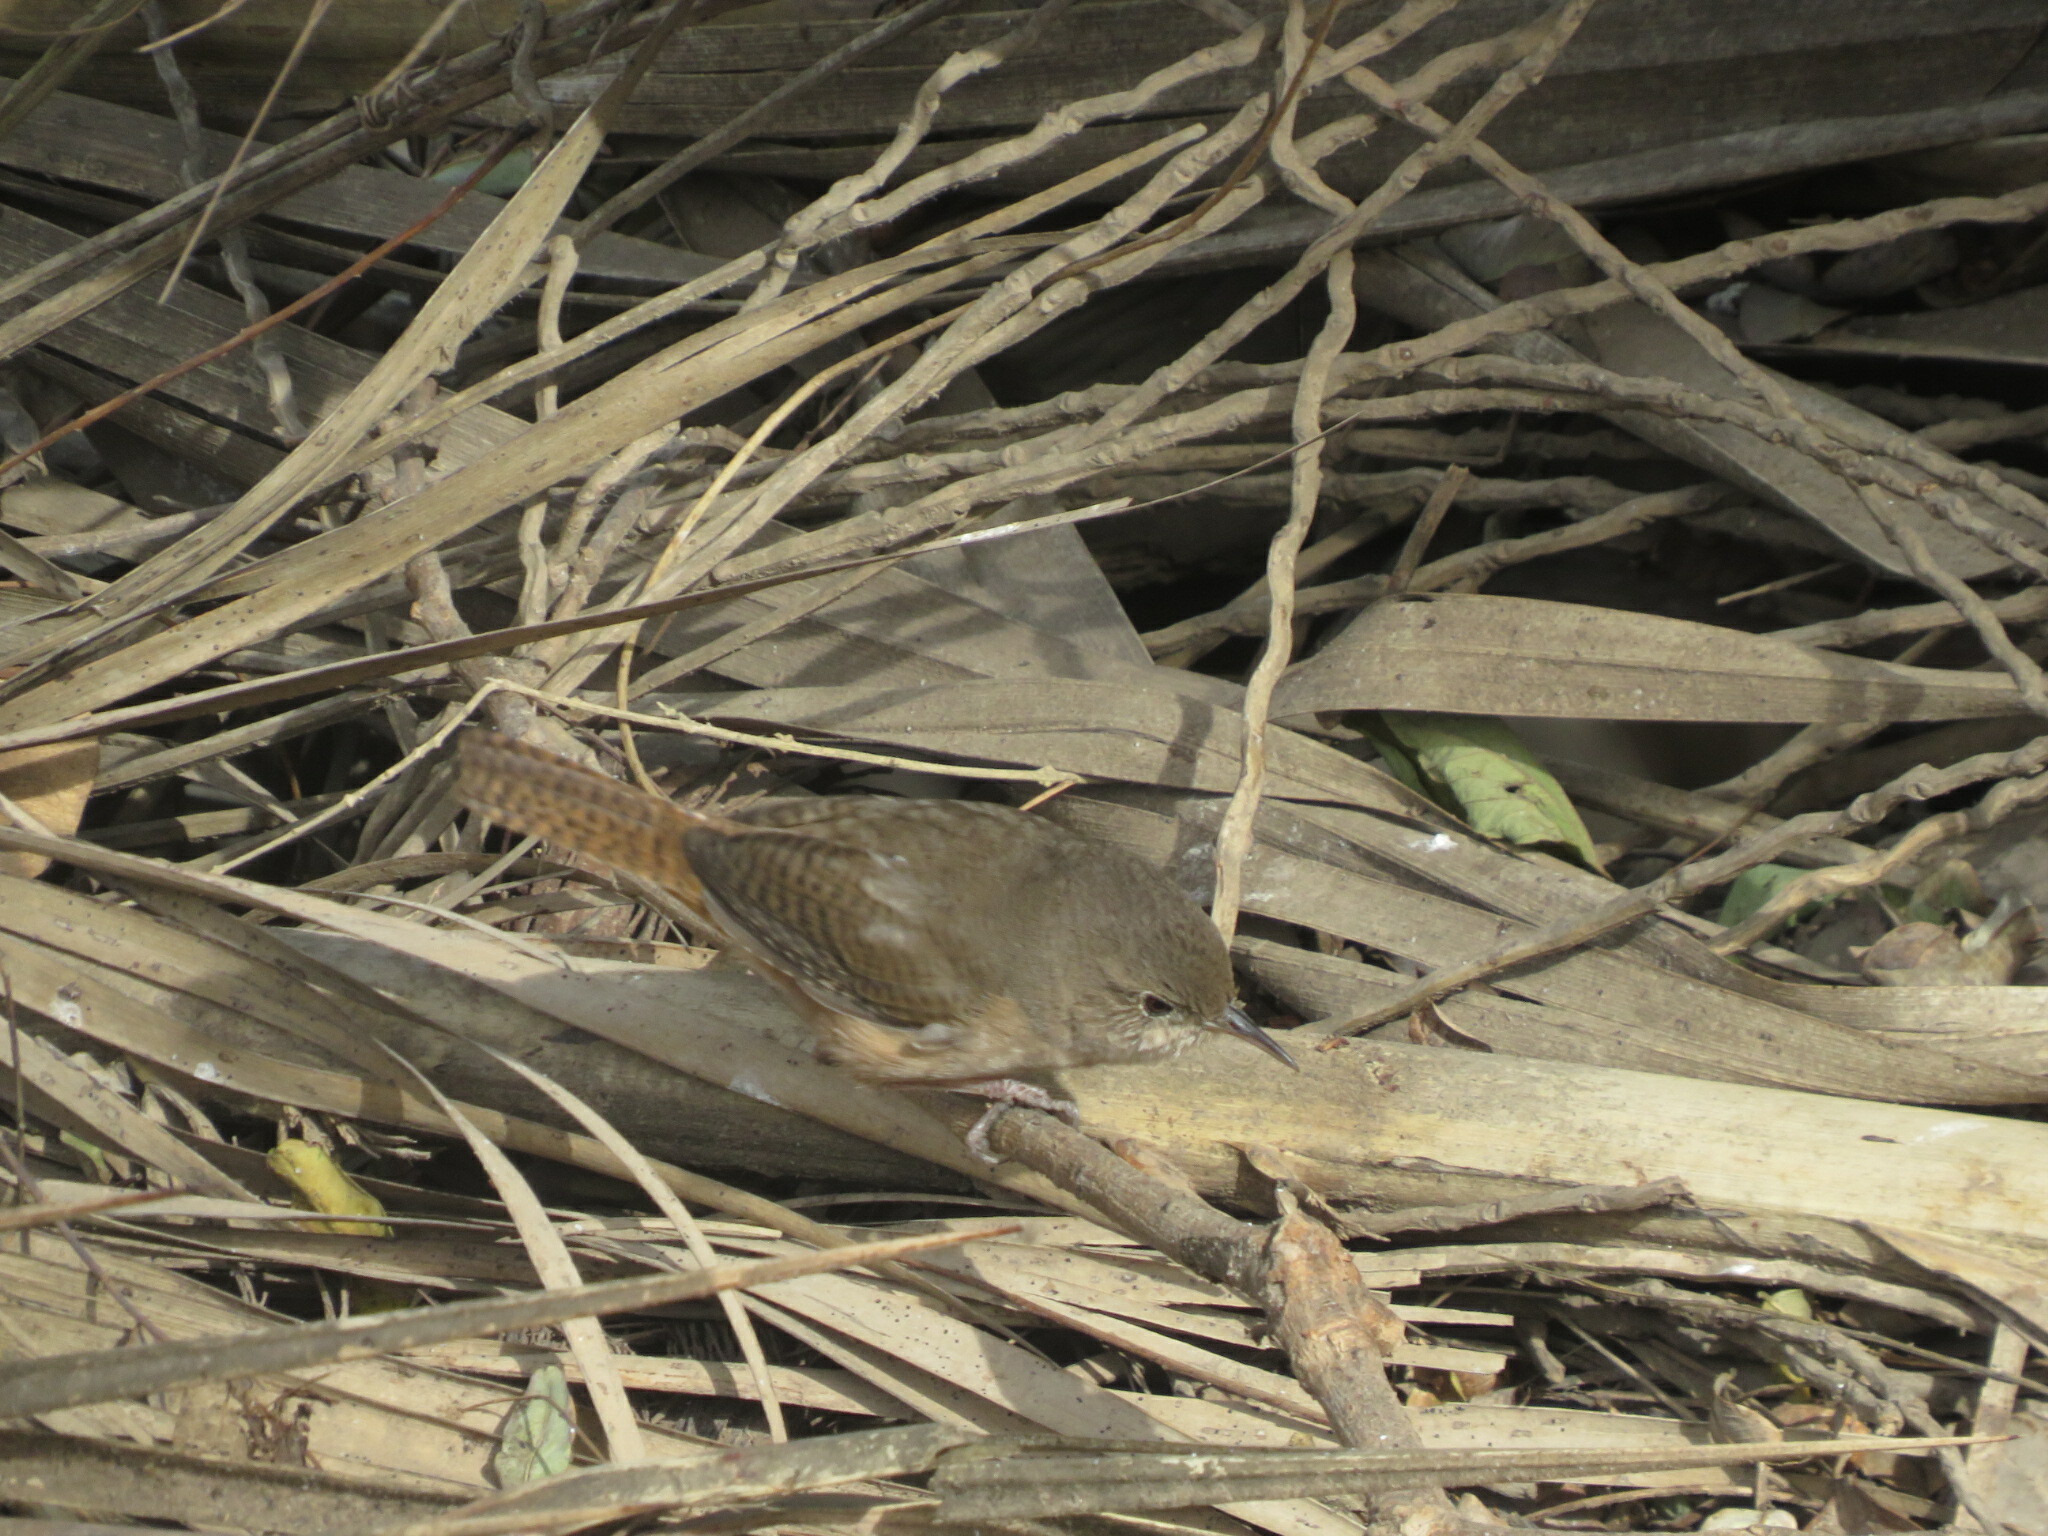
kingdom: Animalia
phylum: Chordata
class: Aves
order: Passeriformes
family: Troglodytidae
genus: Troglodytes
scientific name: Troglodytes aedon
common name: House wren
